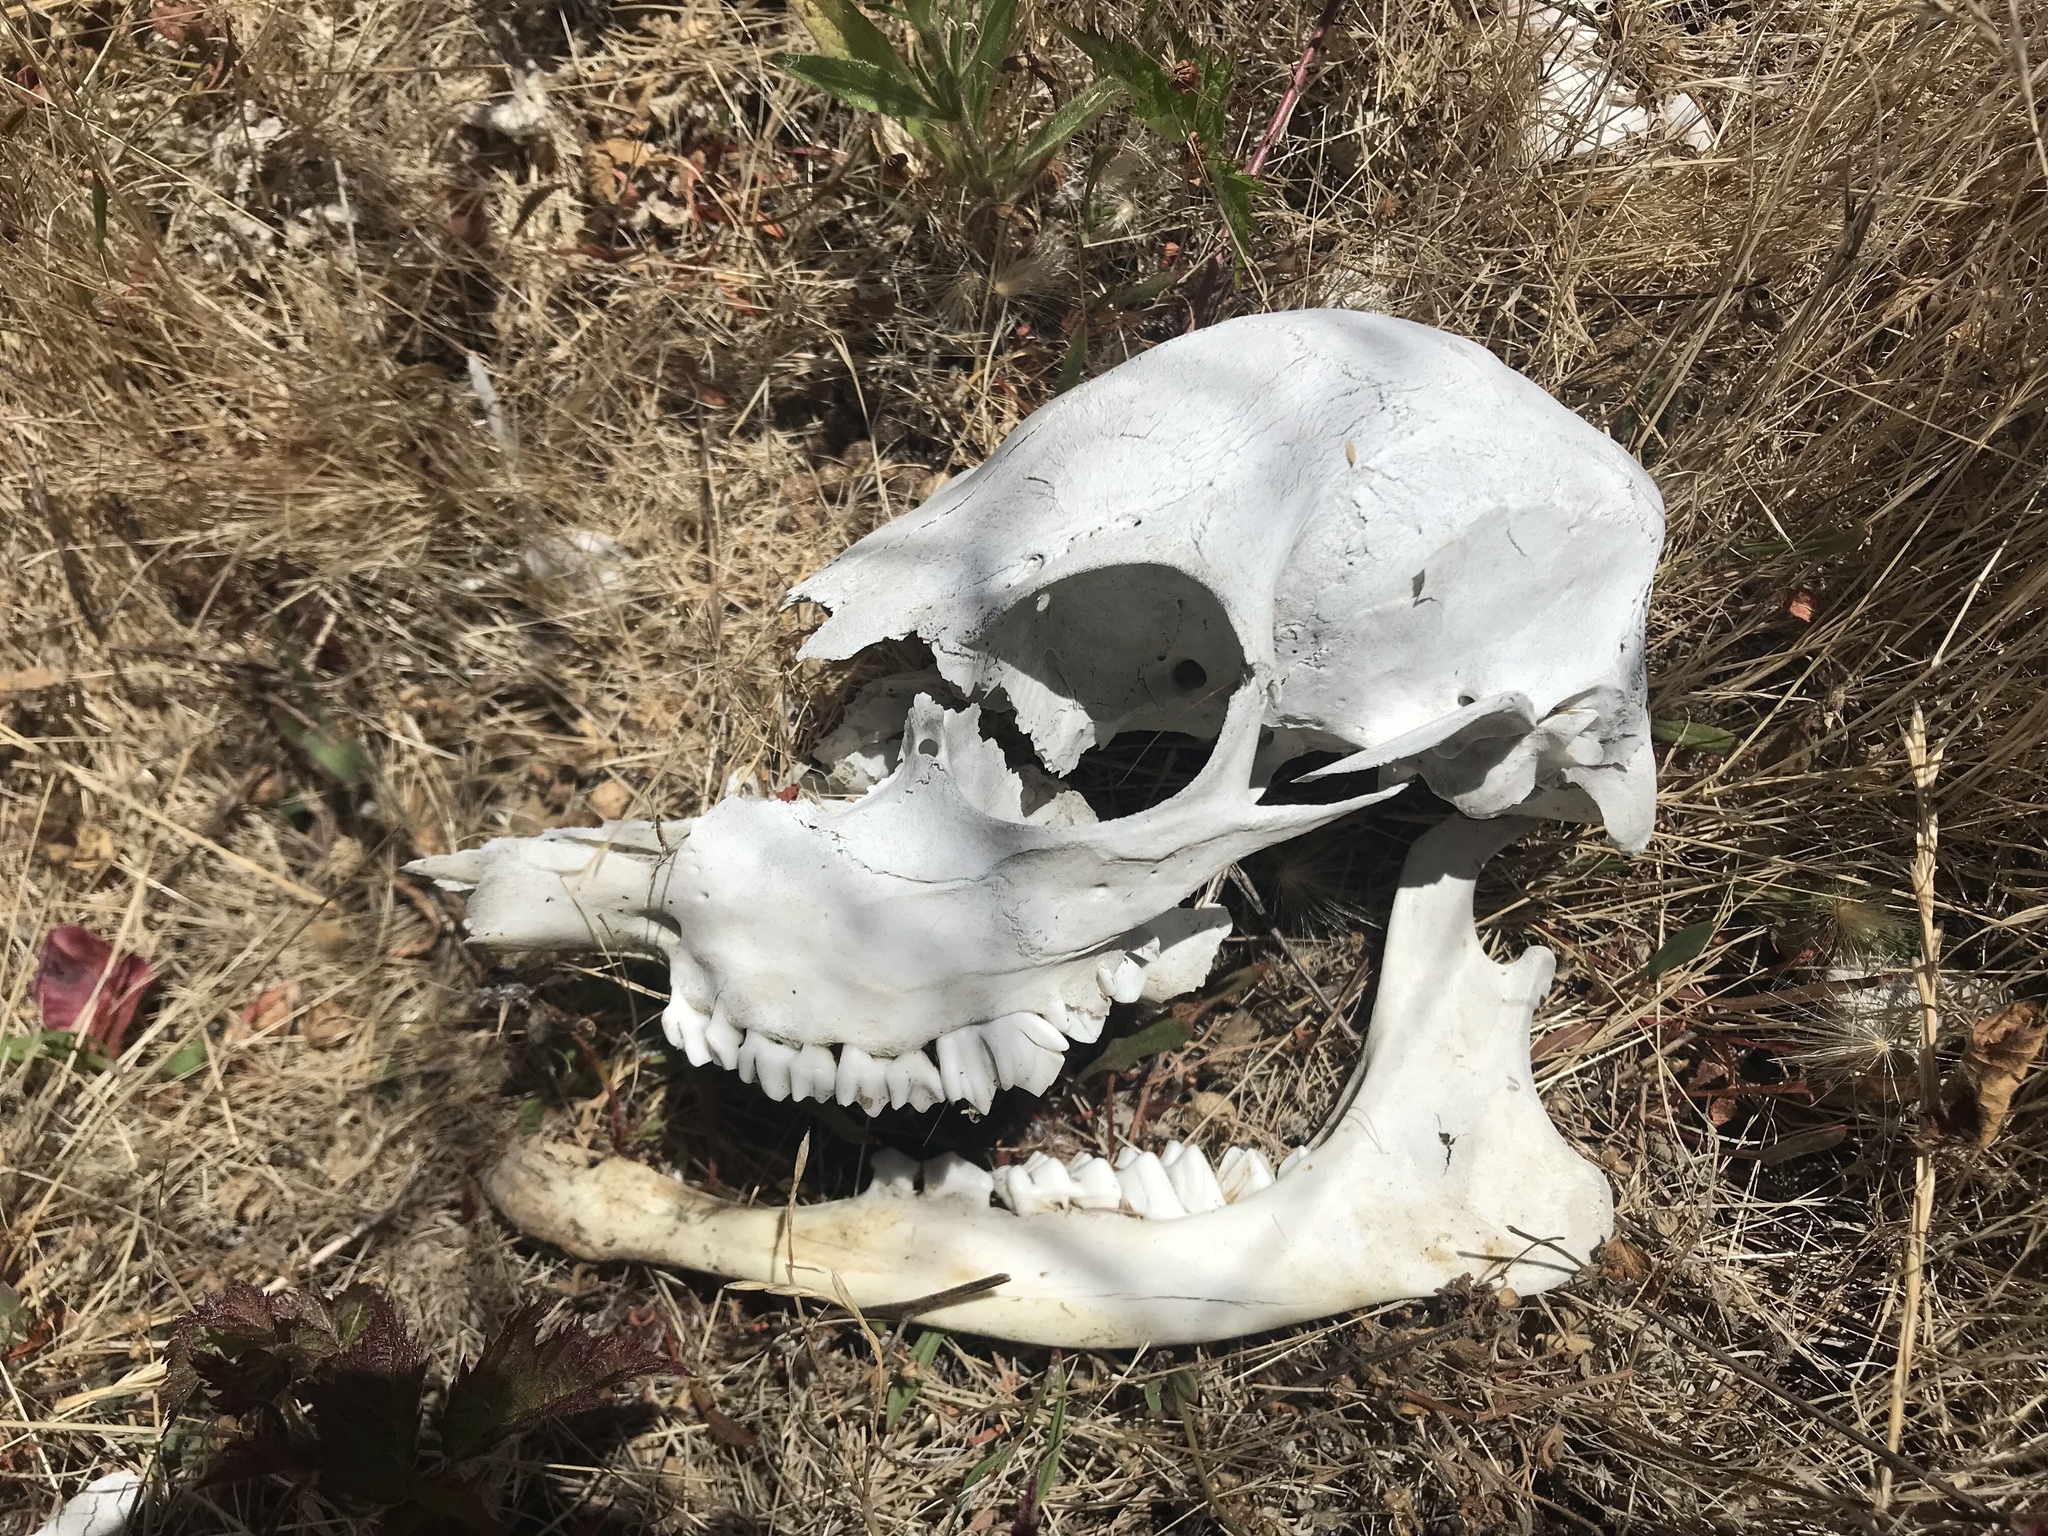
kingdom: Animalia
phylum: Chordata
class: Mammalia
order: Artiodactyla
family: Cervidae
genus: Odocoileus
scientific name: Odocoileus hemionus
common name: Mule deer
